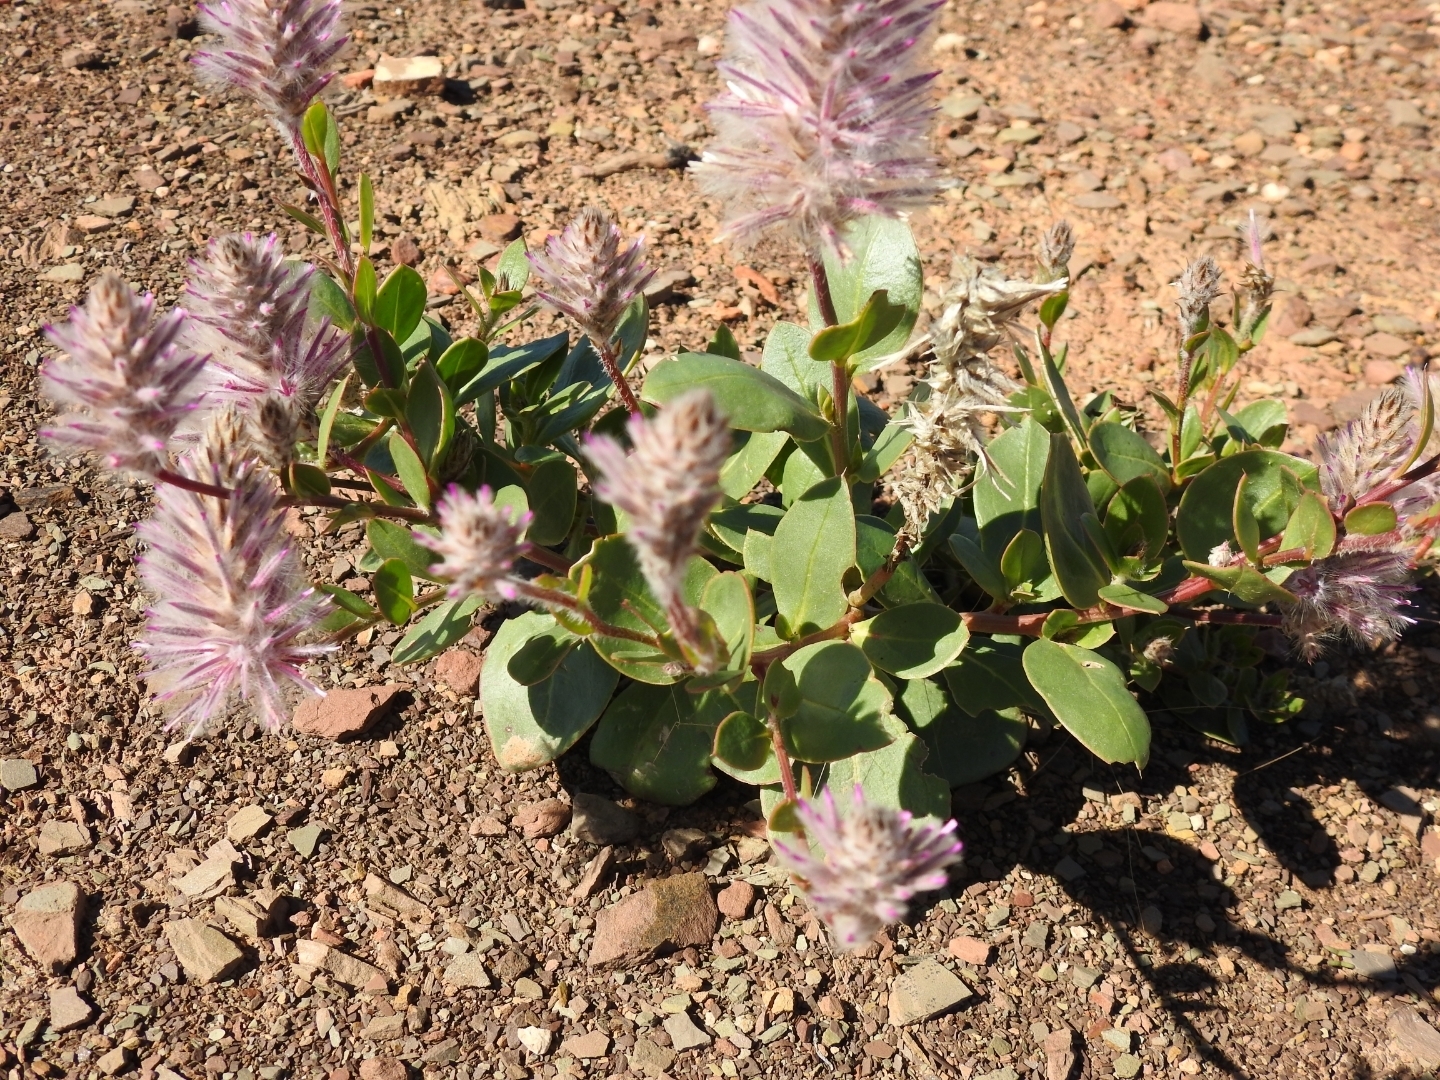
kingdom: Plantae
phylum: Tracheophyta
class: Magnoliopsida
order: Caryophyllales
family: Amaranthaceae
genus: Ptilotus
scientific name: Ptilotus exaltatus
